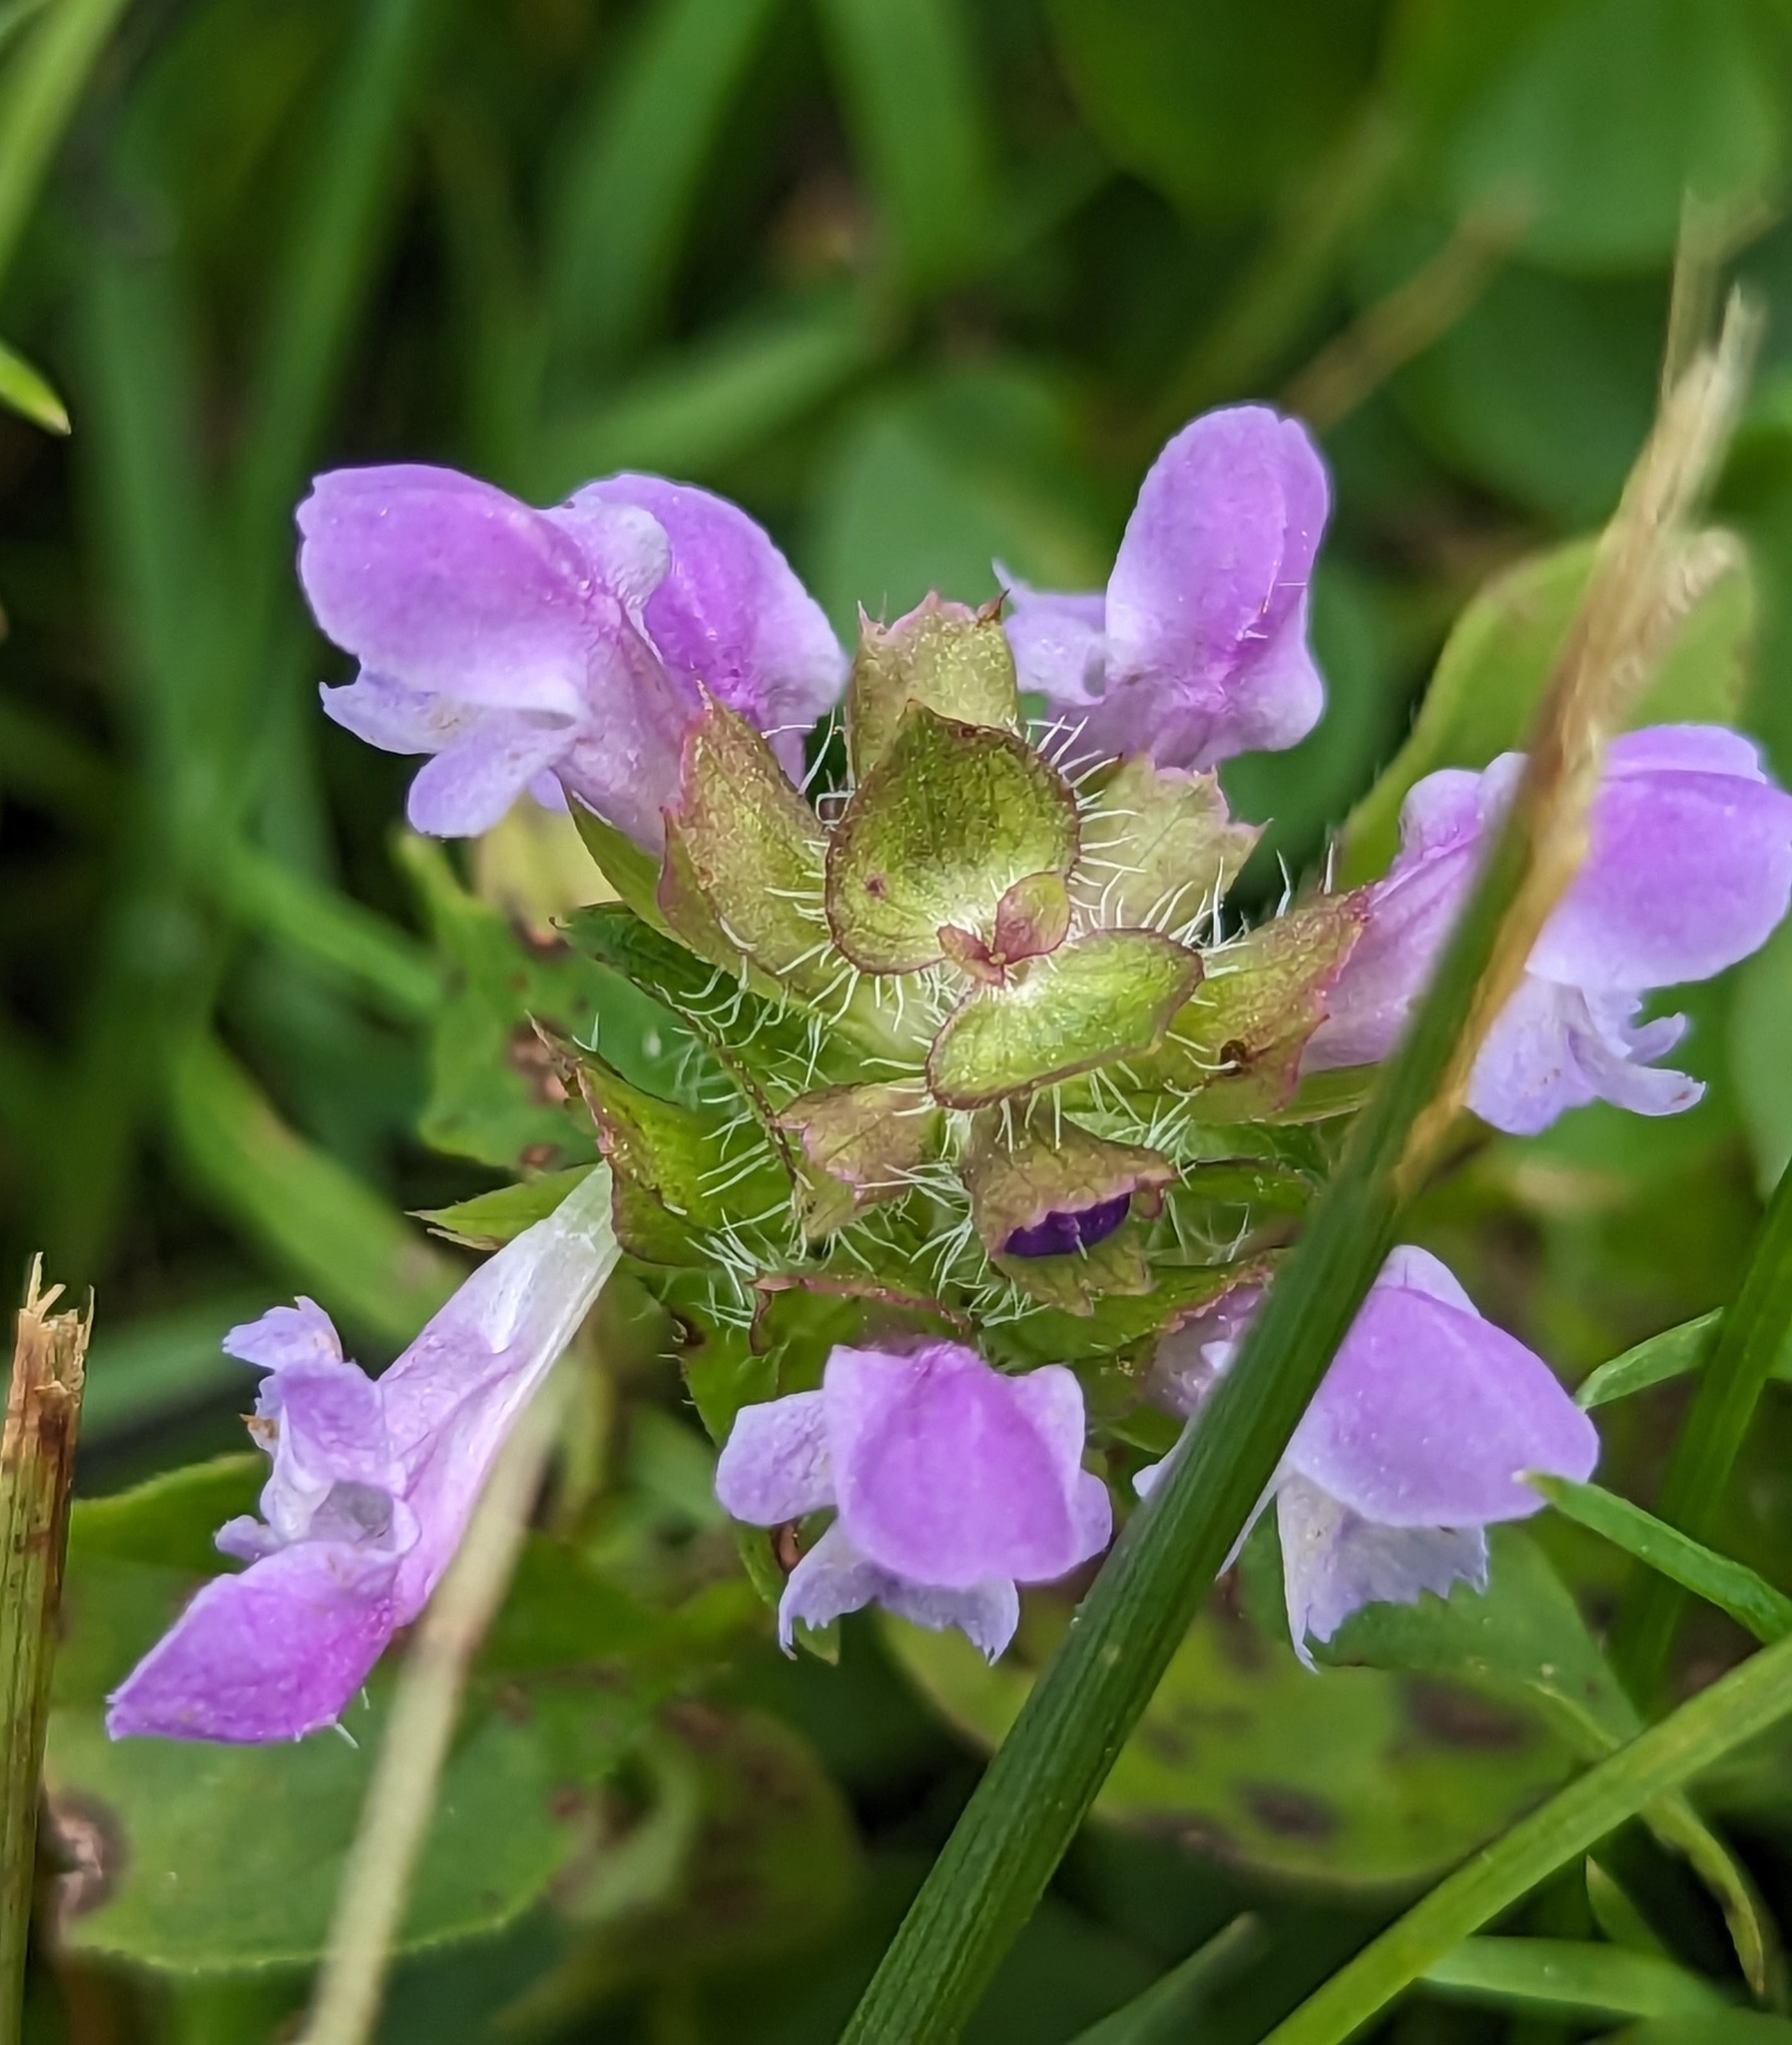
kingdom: Plantae
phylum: Tracheophyta
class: Magnoliopsida
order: Lamiales
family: Lamiaceae
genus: Prunella
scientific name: Prunella vulgaris
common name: Heal-all
